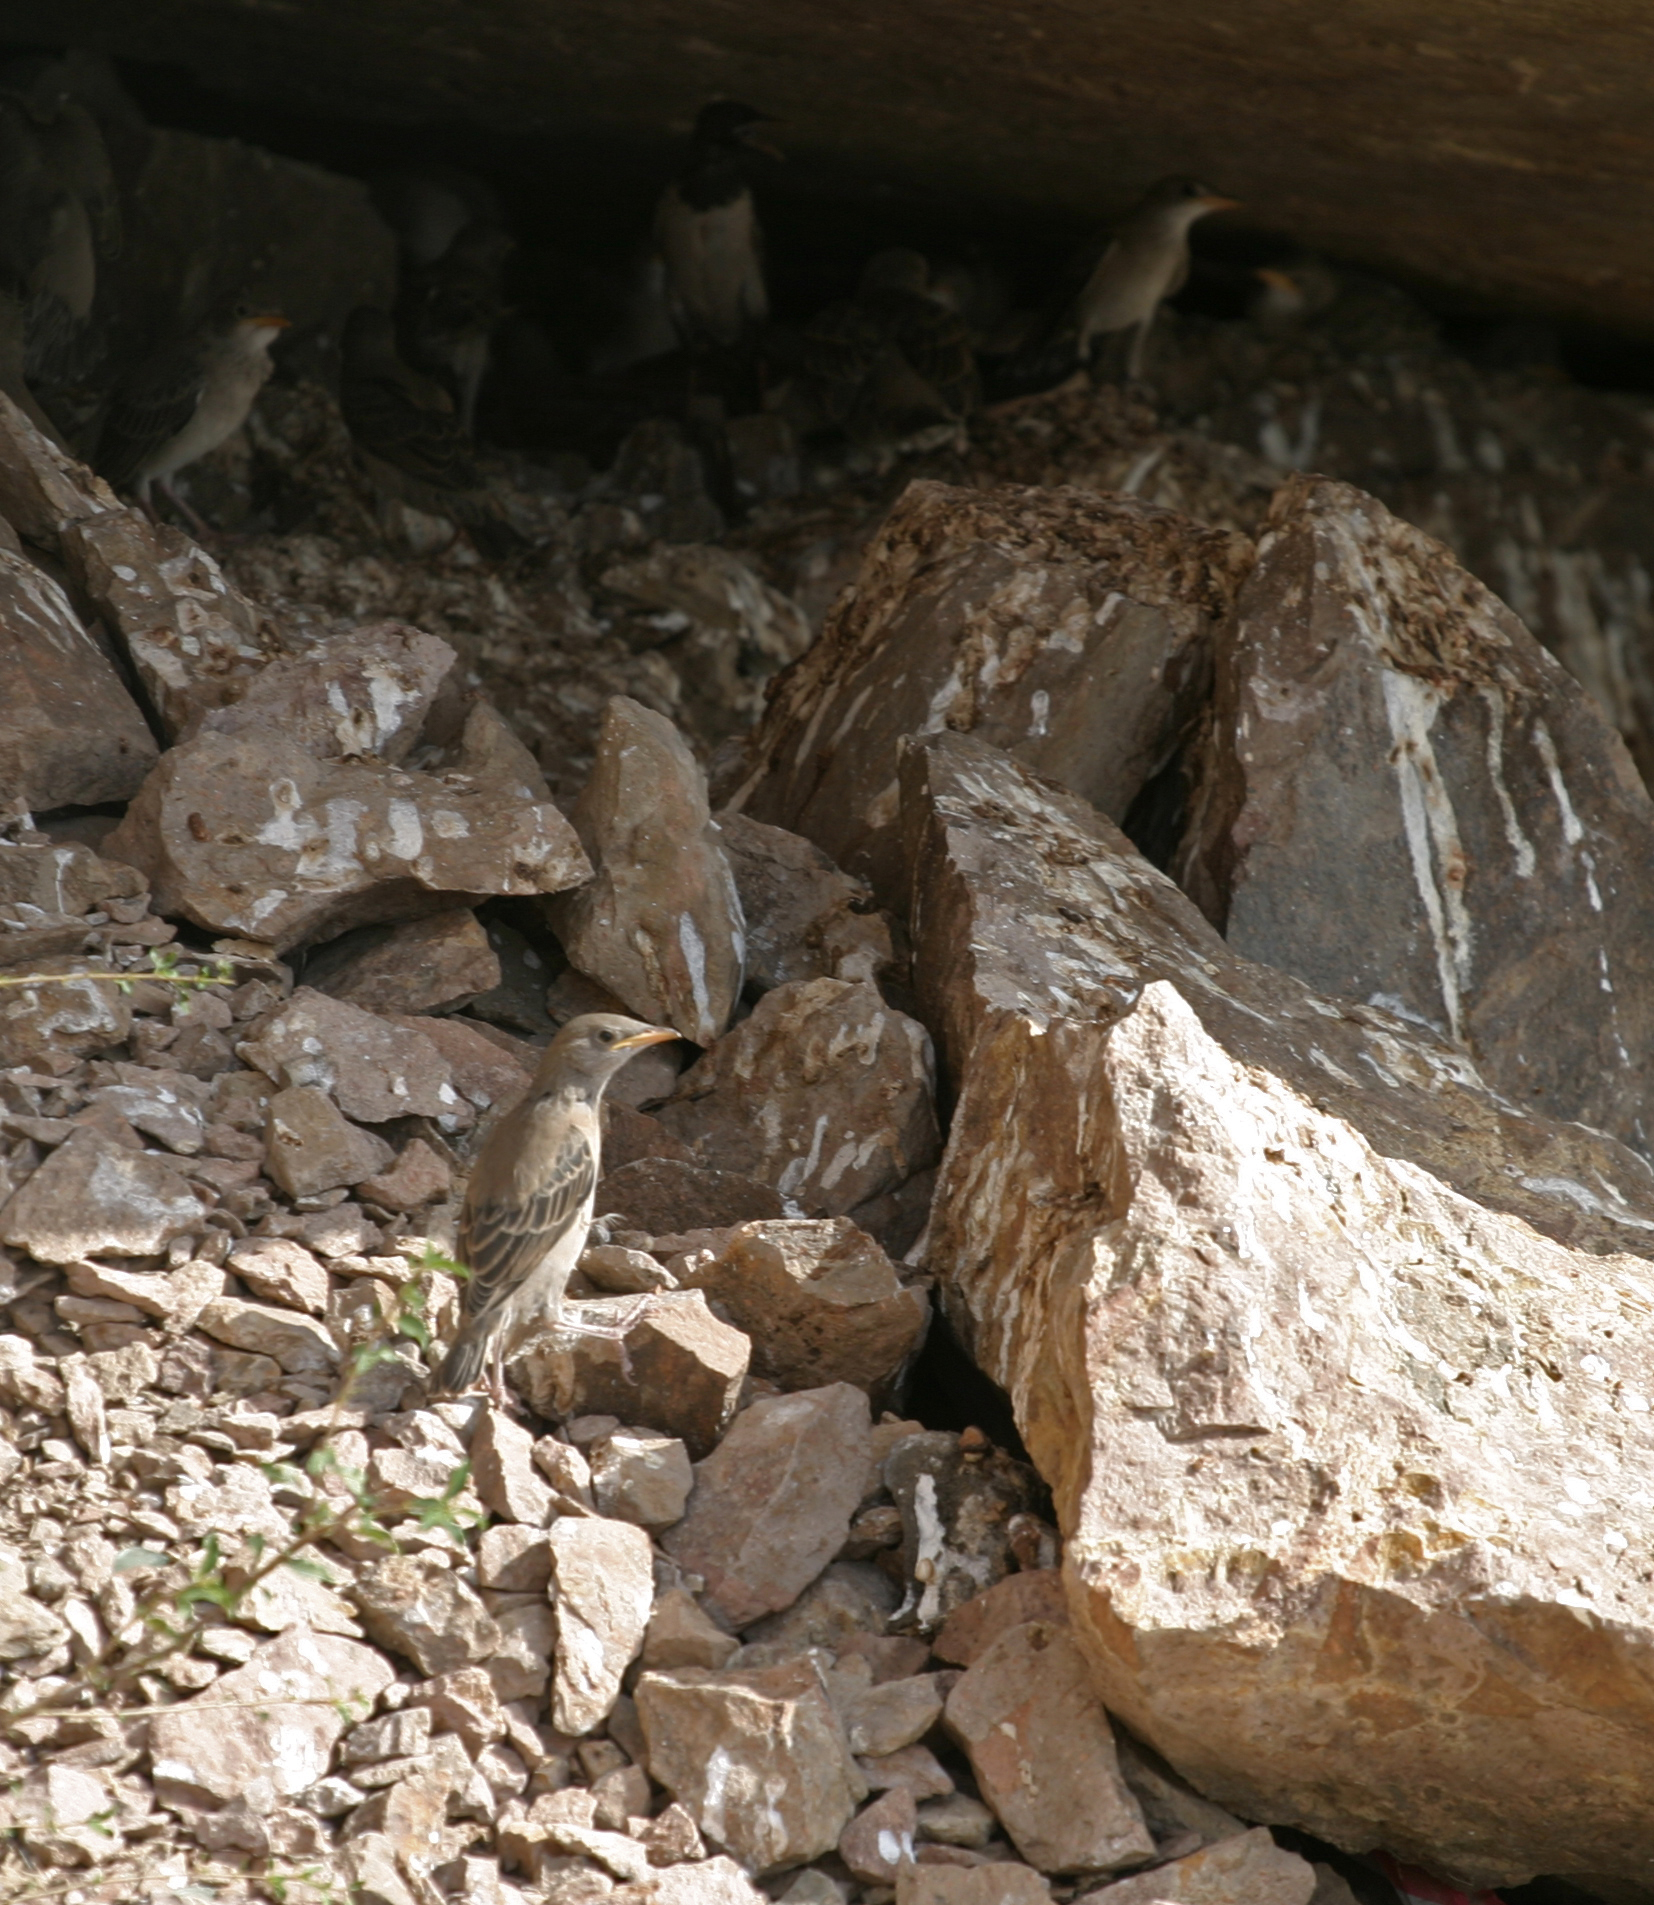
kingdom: Animalia
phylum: Chordata
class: Aves
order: Passeriformes
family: Sturnidae
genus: Pastor
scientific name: Pastor roseus
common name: Rosy starling
